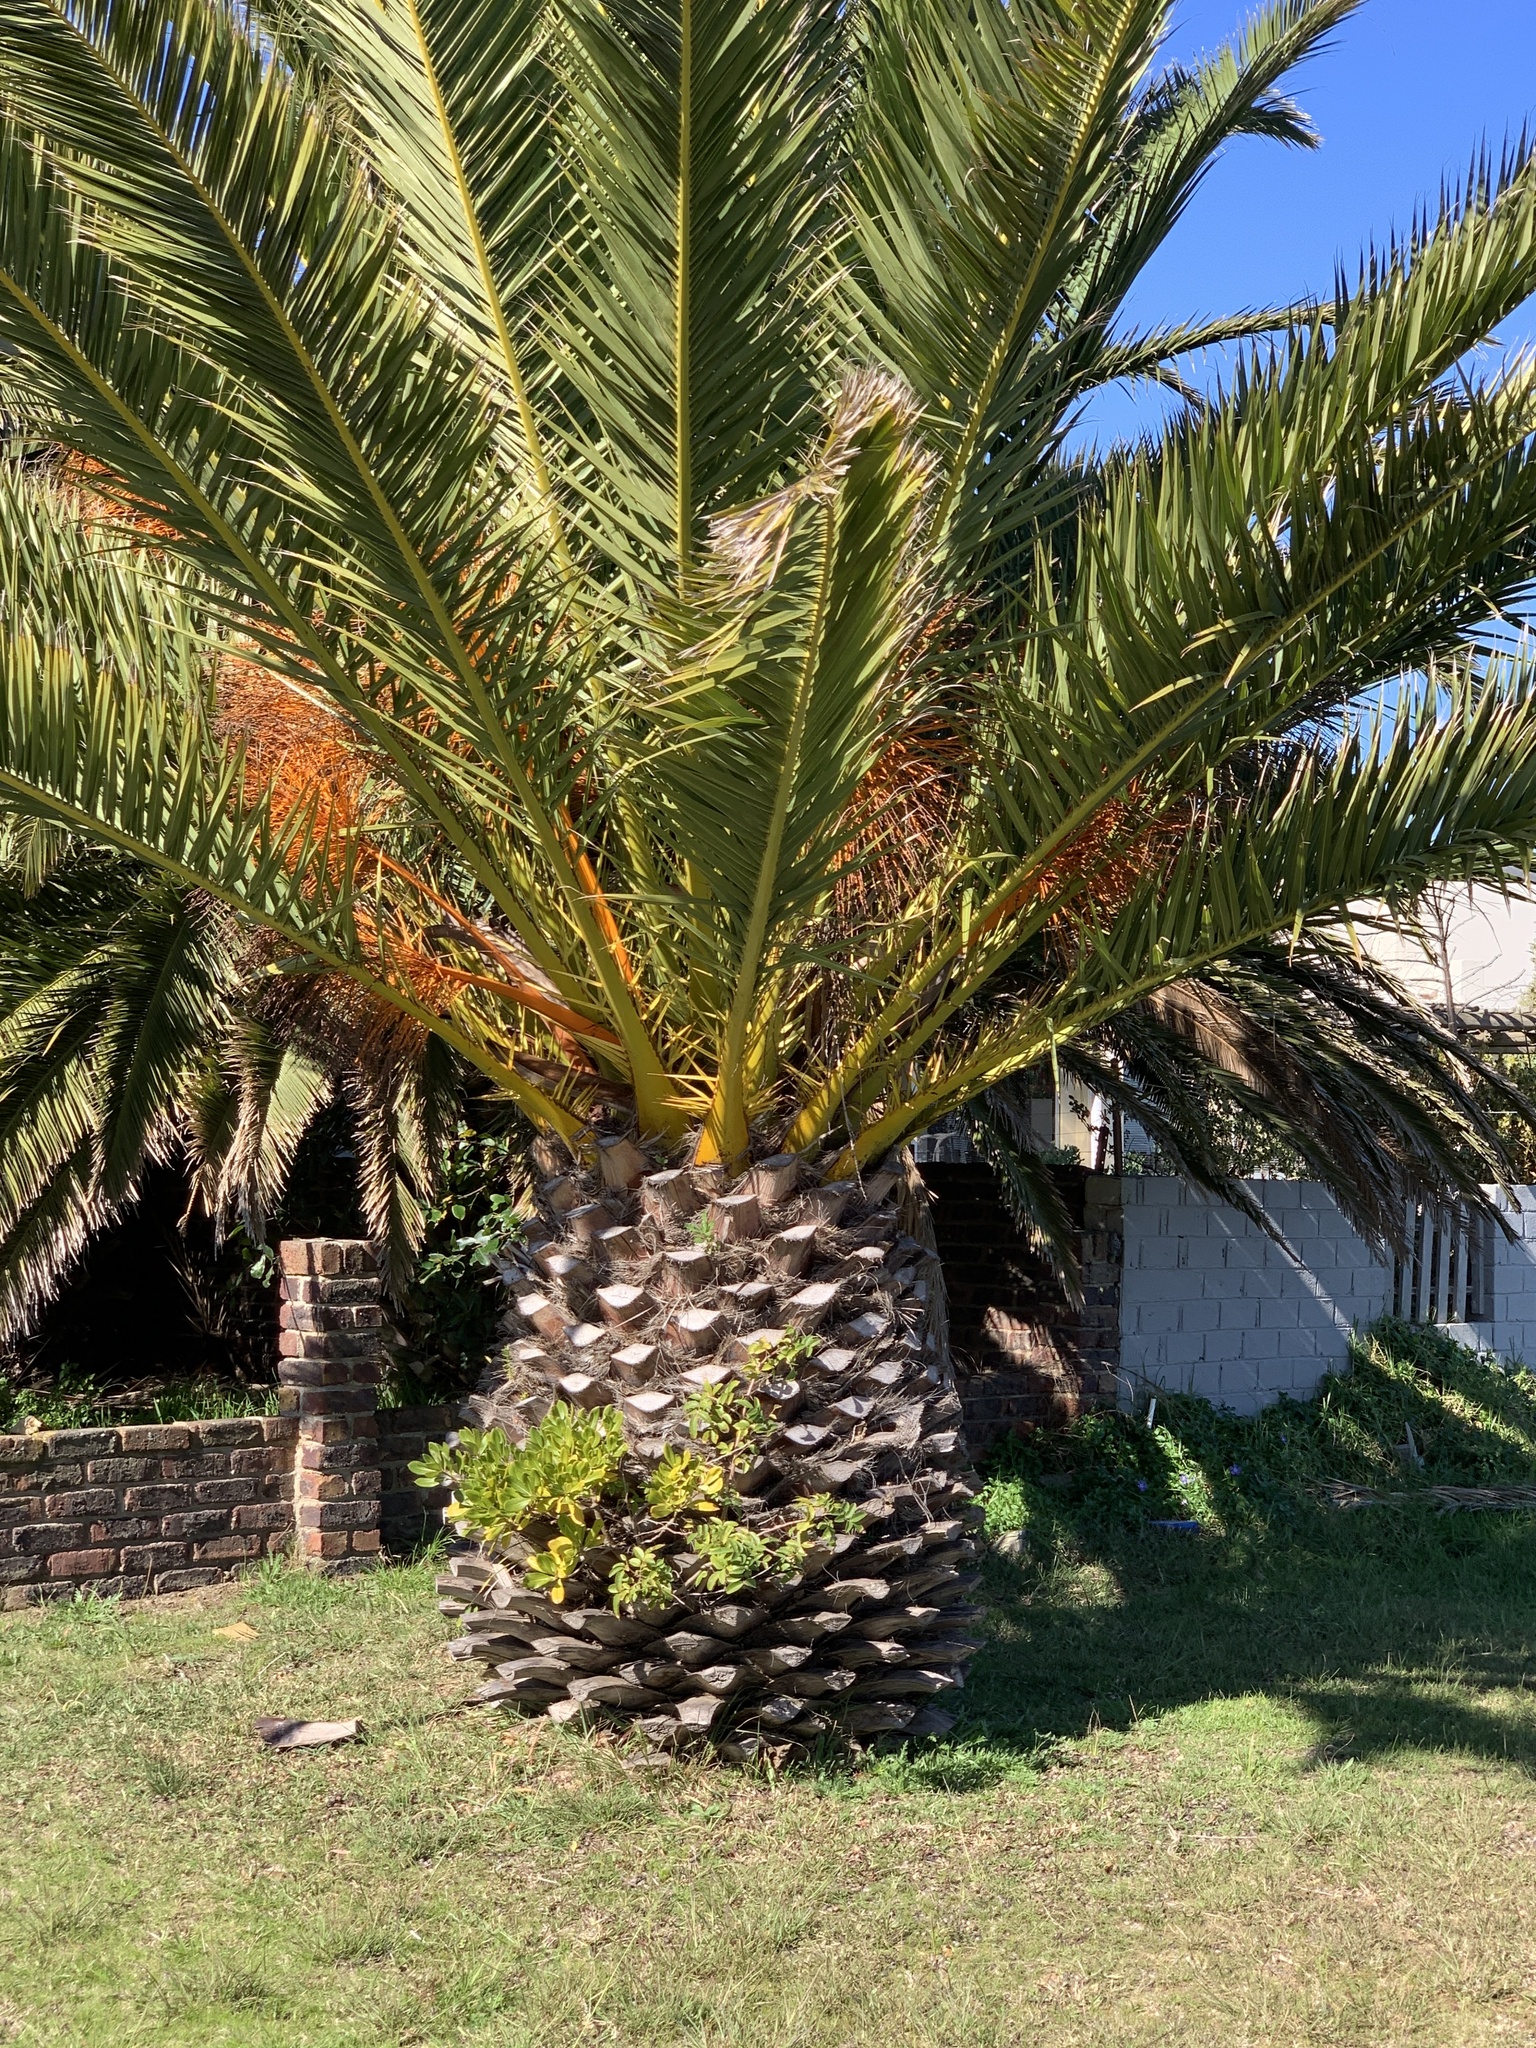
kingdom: Plantae
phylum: Tracheophyta
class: Magnoliopsida
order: Sapindales
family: Anacardiaceae
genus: Schinus
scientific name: Schinus terebinthifolia
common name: Brazilian peppertree
